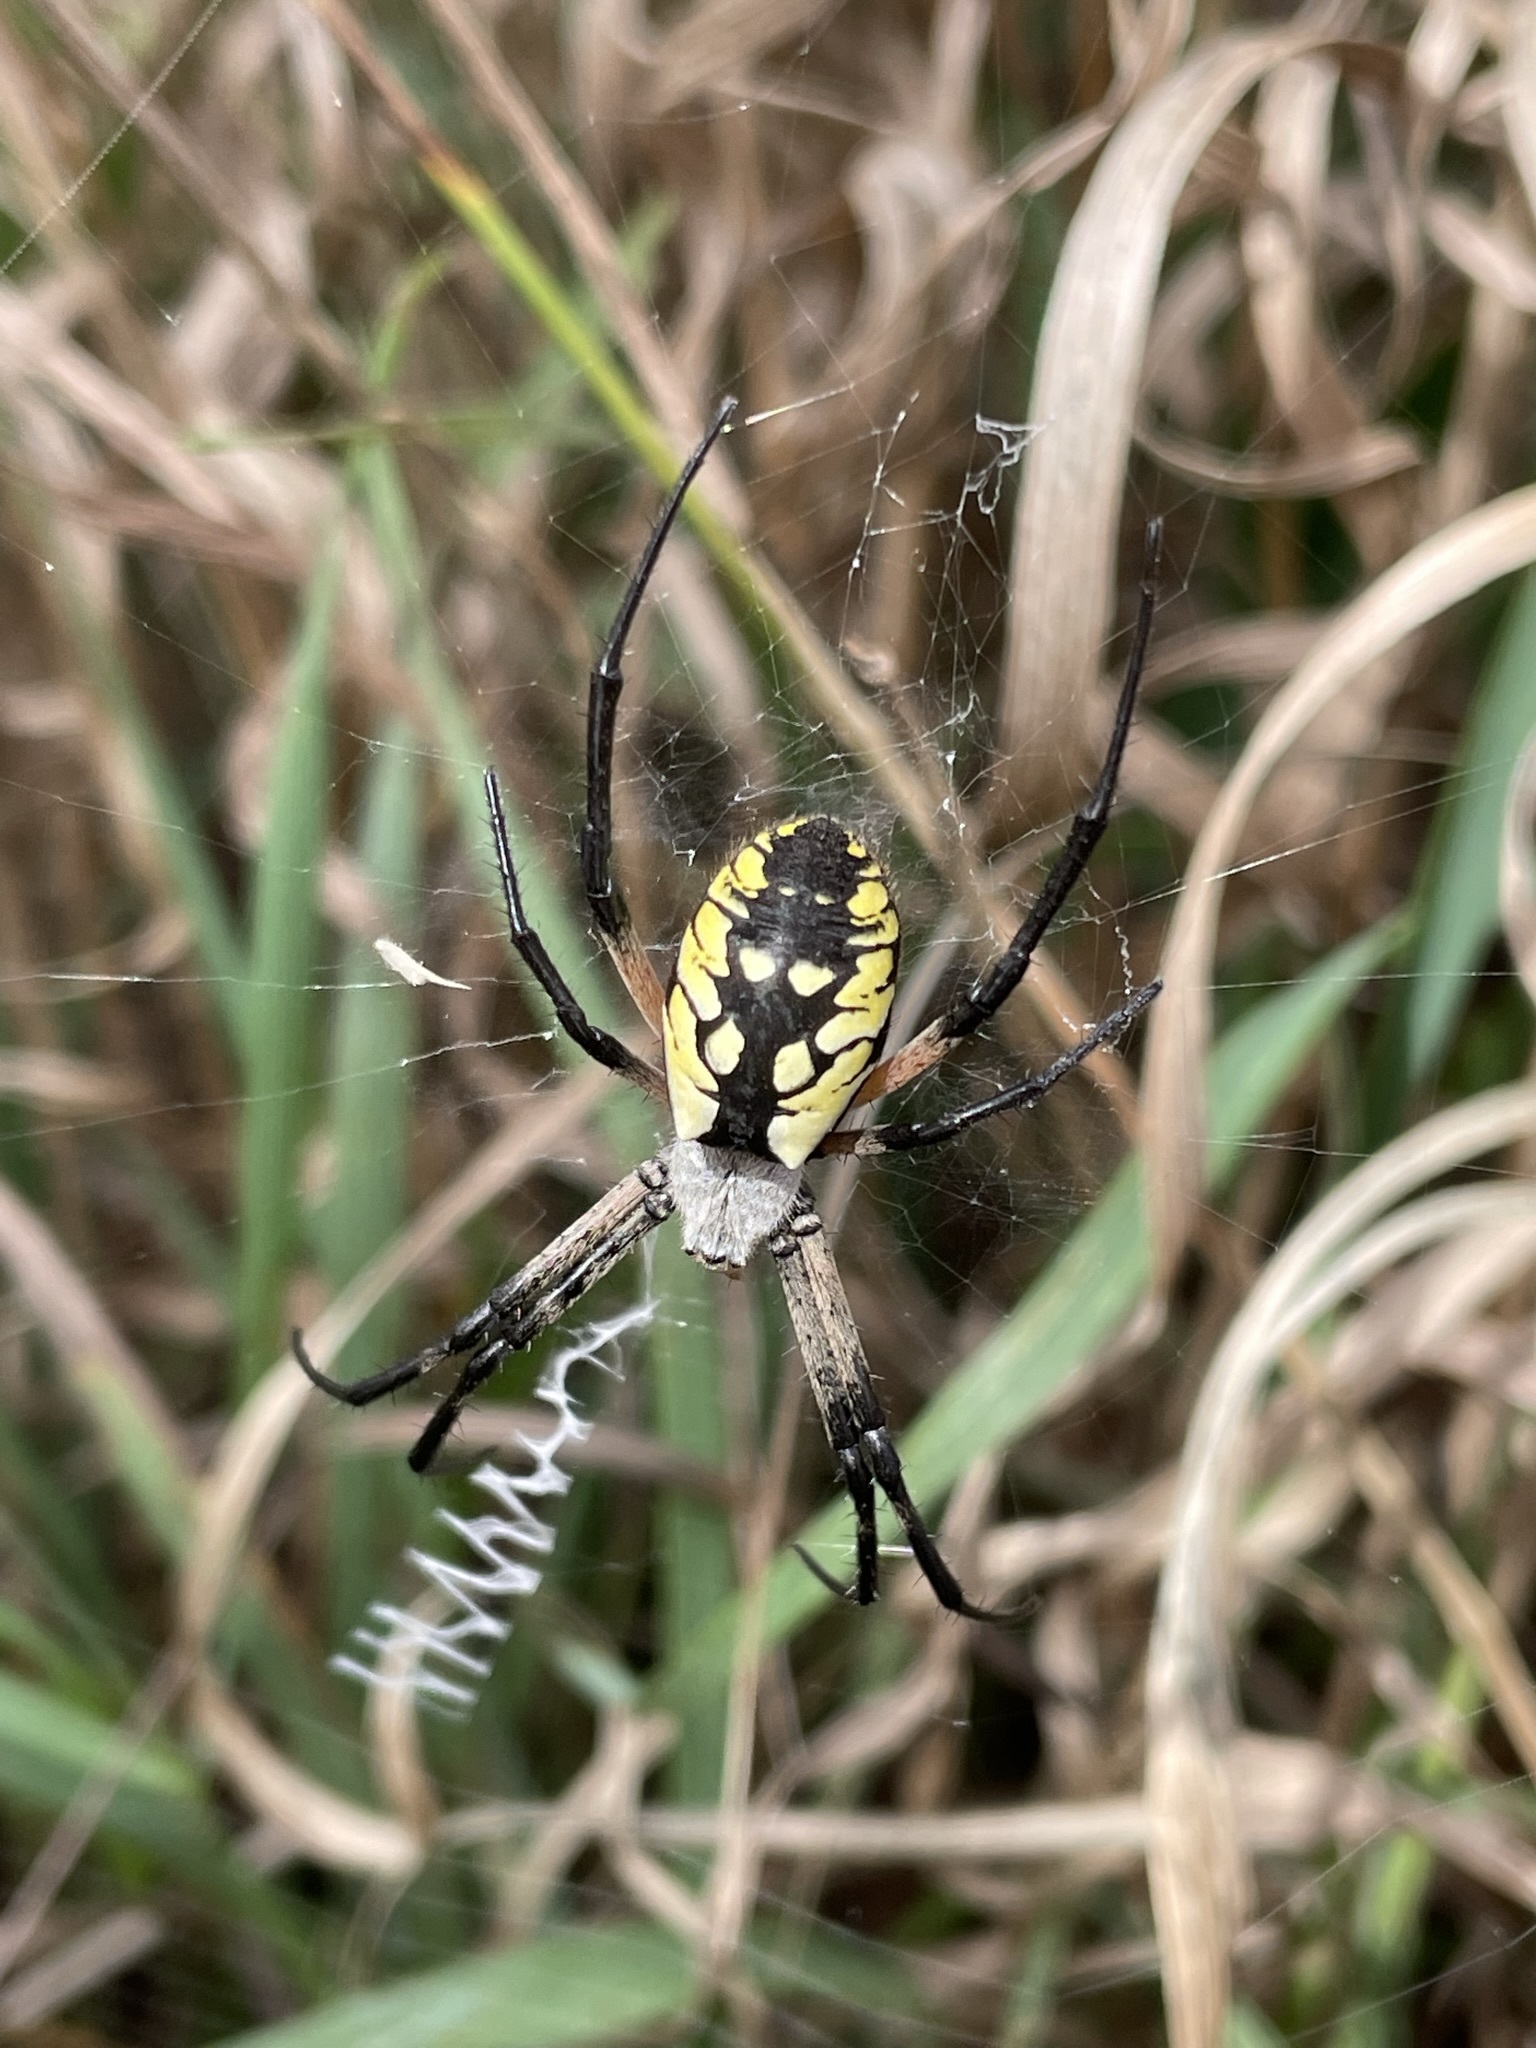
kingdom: Animalia
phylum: Arthropoda
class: Arachnida
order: Araneae
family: Araneidae
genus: Argiope
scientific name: Argiope aurantia
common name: Orb weavers
